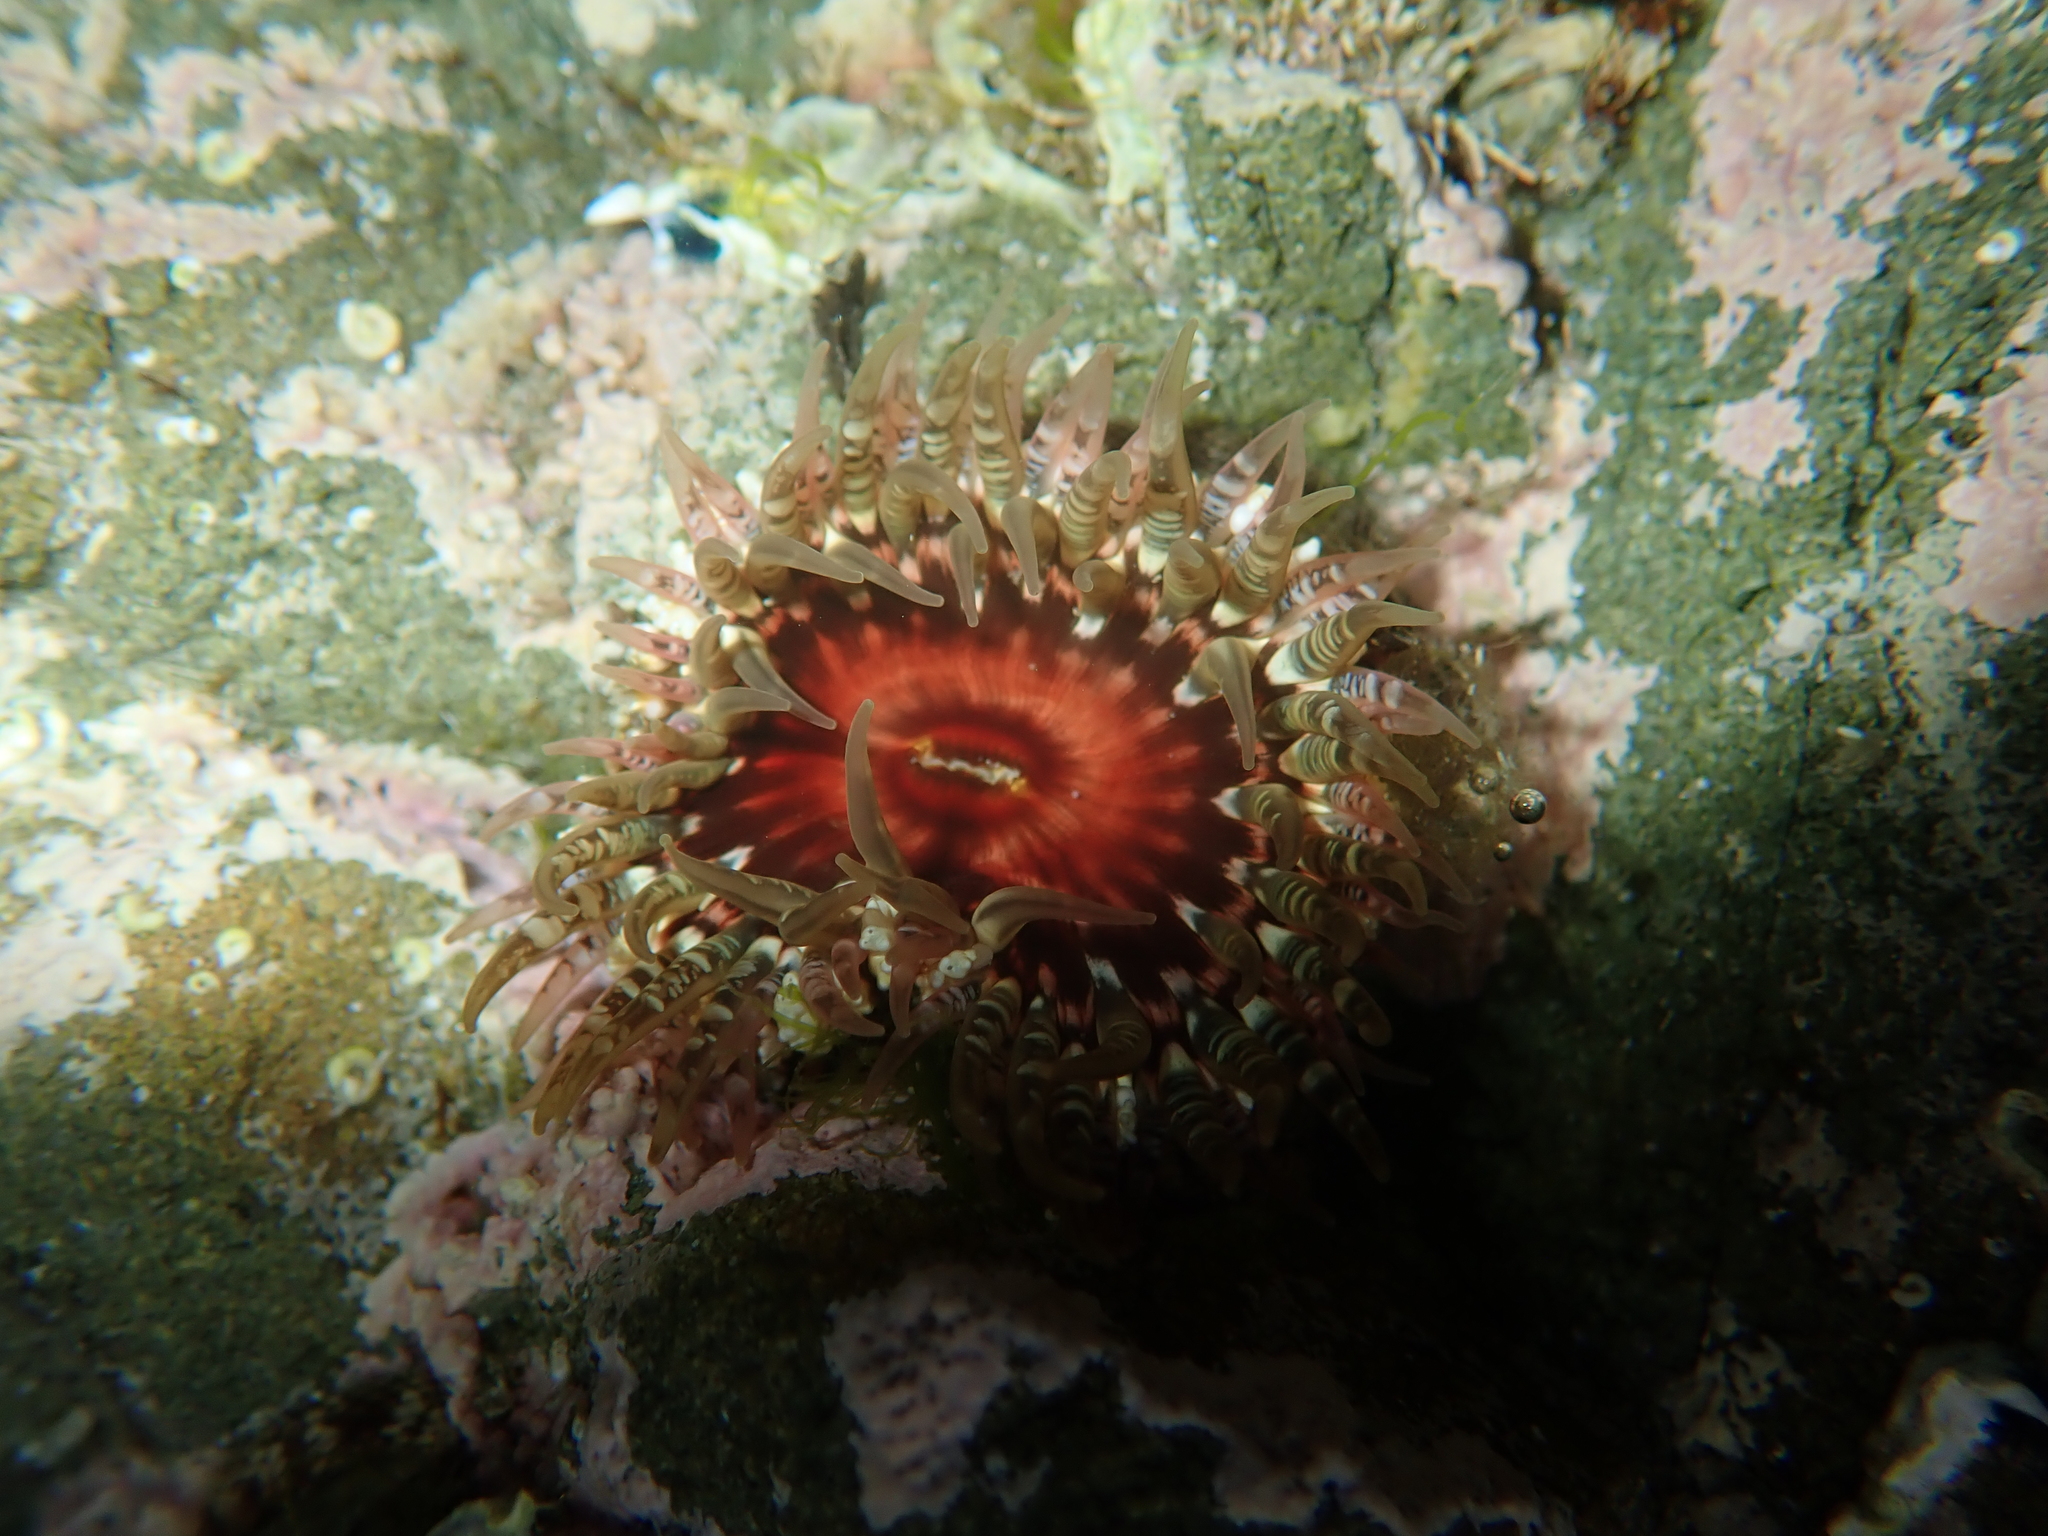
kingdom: Animalia
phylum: Cnidaria
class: Anthozoa
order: Actiniaria
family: Actiniidae
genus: Oulactis
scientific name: Oulactis muscosa
